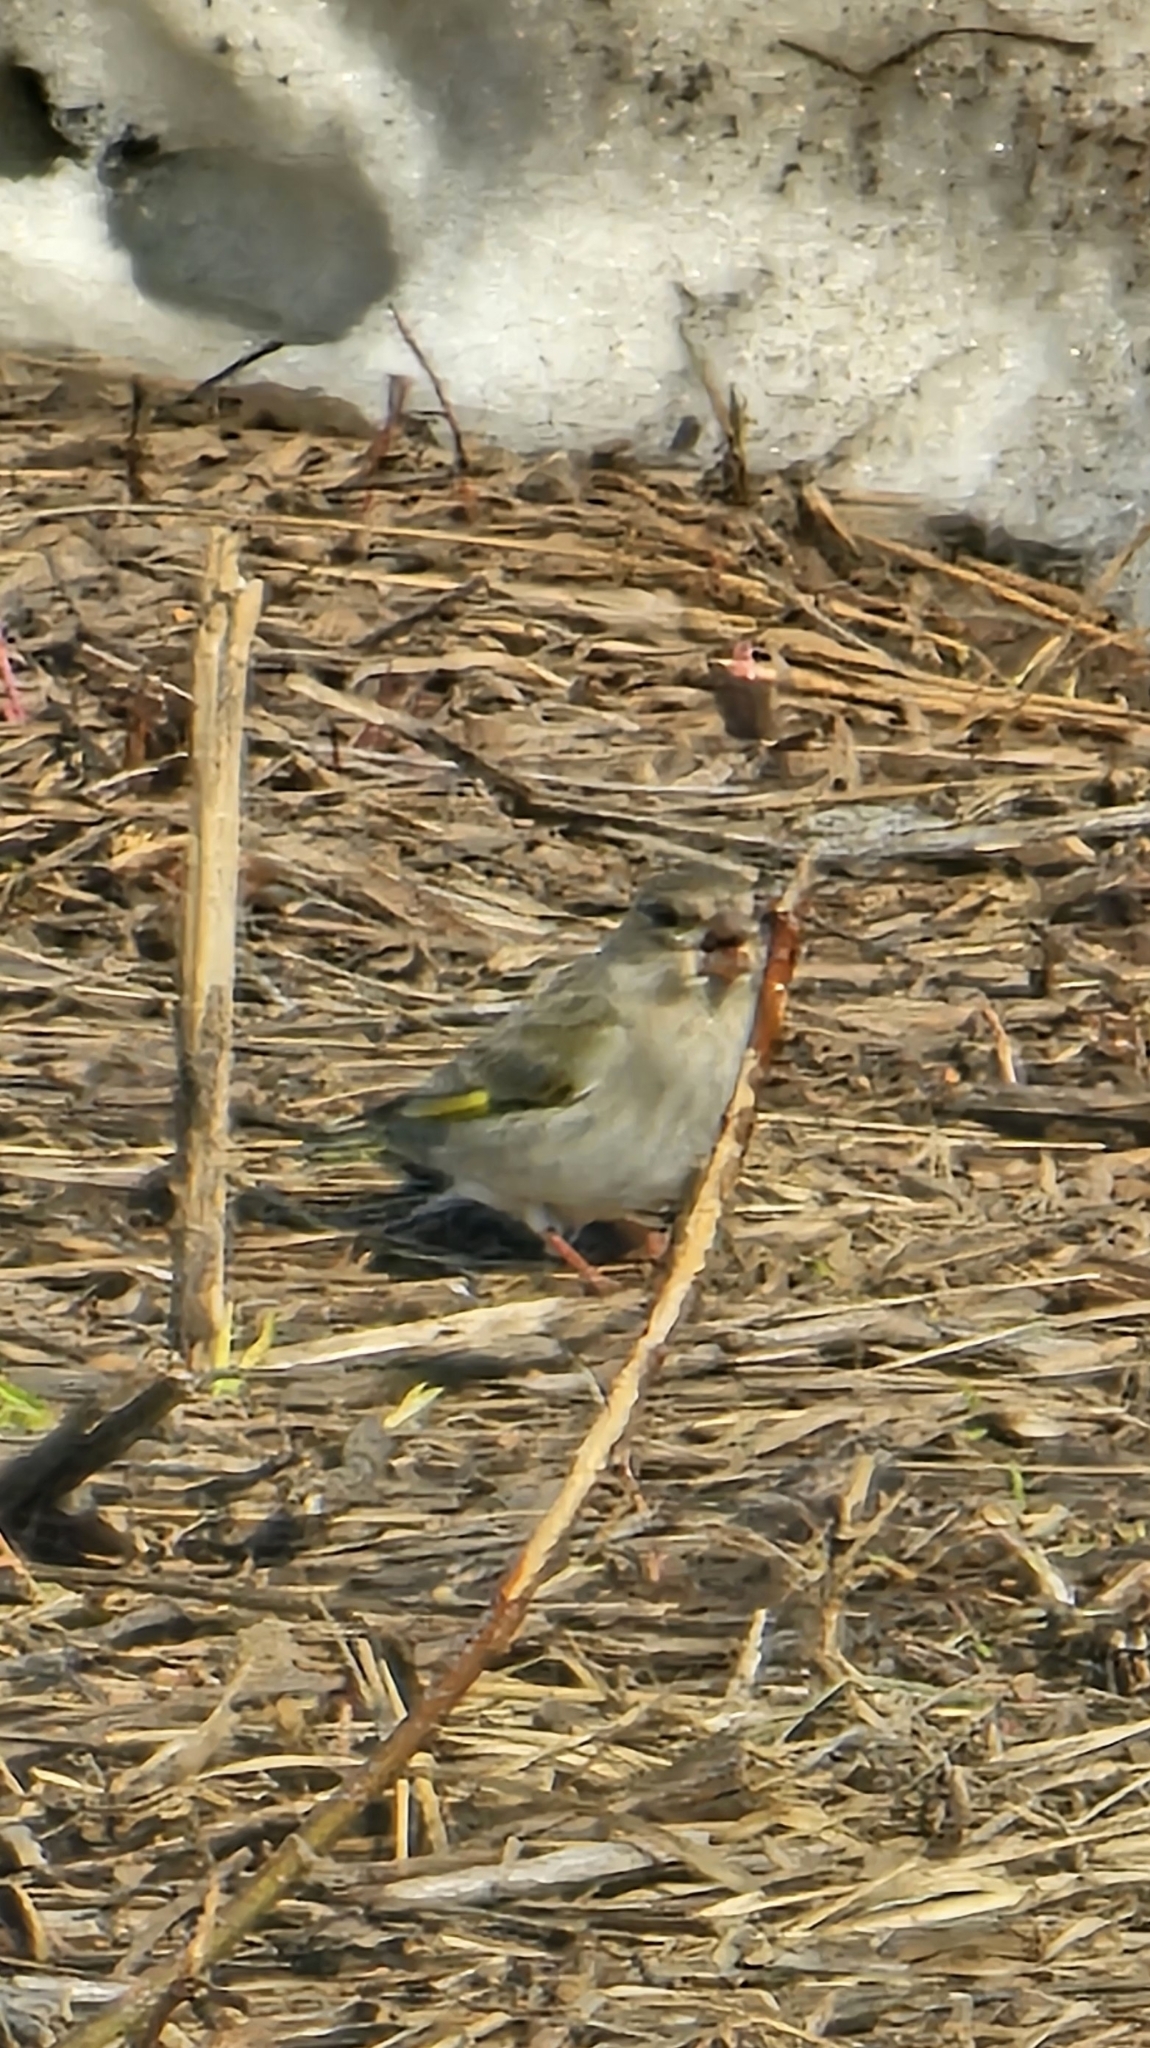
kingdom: Plantae
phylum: Tracheophyta
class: Liliopsida
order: Poales
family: Poaceae
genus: Chloris
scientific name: Chloris chloris
